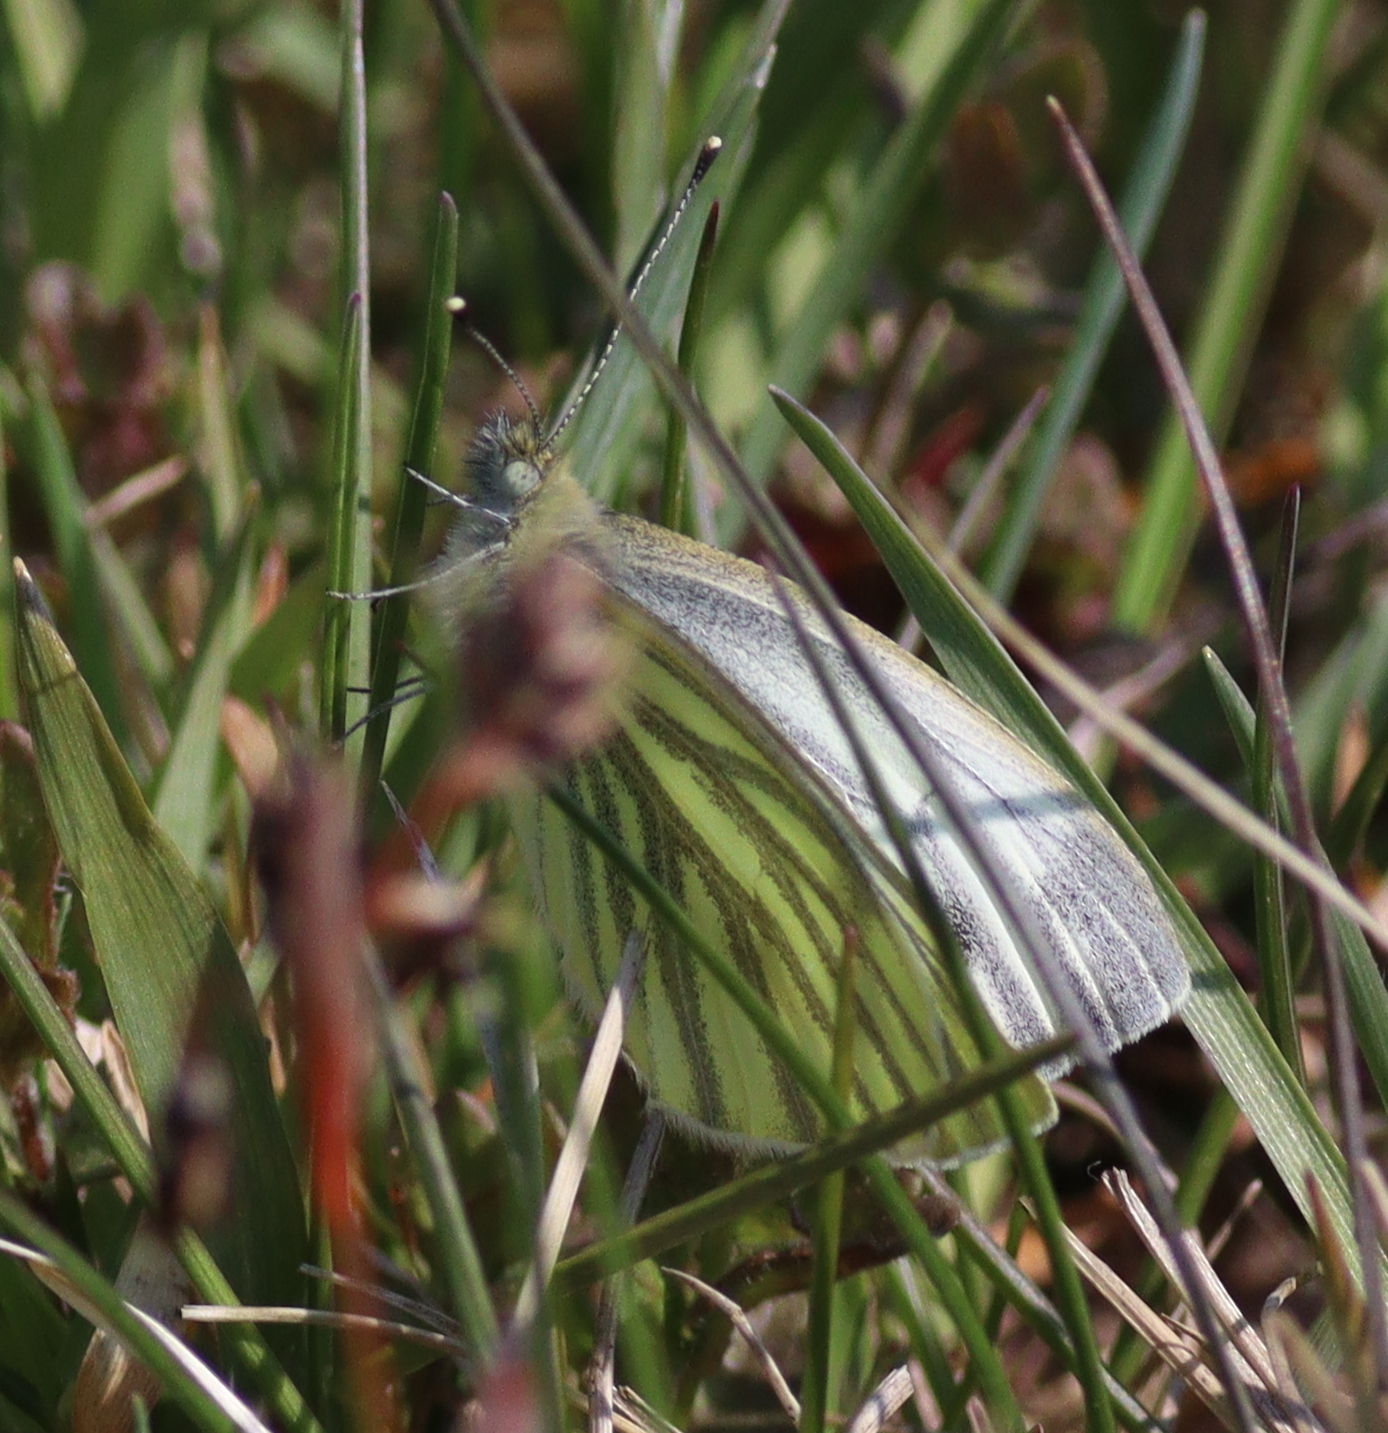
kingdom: Animalia
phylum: Arthropoda
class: Insecta
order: Lepidoptera
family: Pieridae
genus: Pieris
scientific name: Pieris napi
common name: Green-veined white
